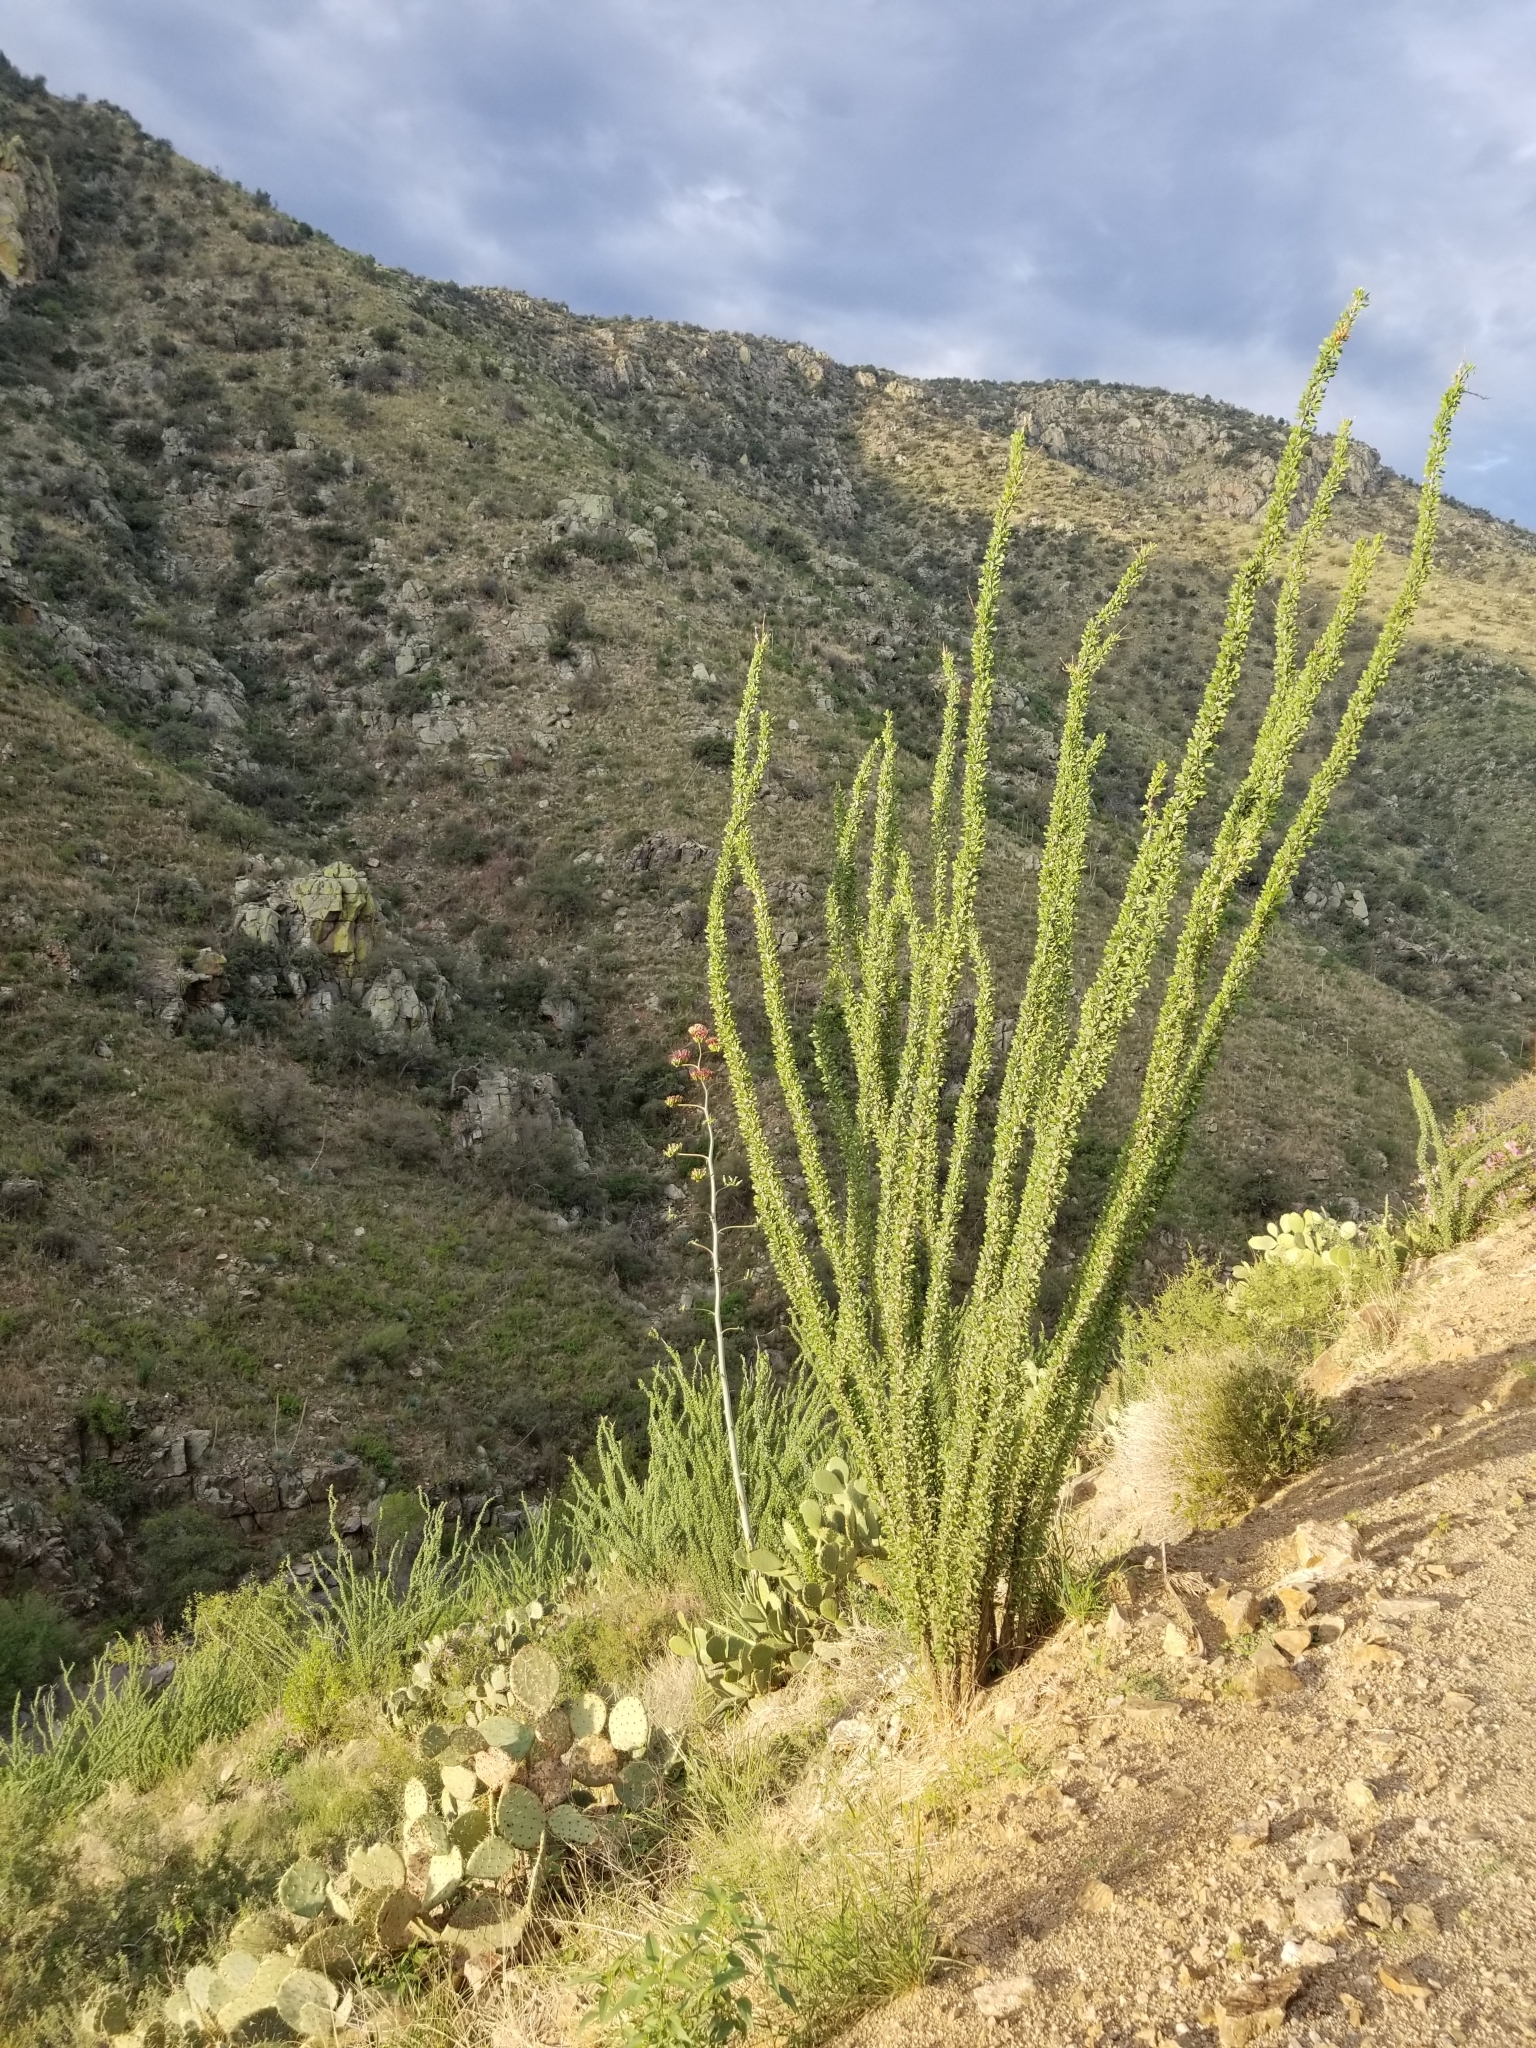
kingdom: Plantae
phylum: Tracheophyta
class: Magnoliopsida
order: Ericales
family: Fouquieriaceae
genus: Fouquieria
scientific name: Fouquieria splendens
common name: Vine-cactus
